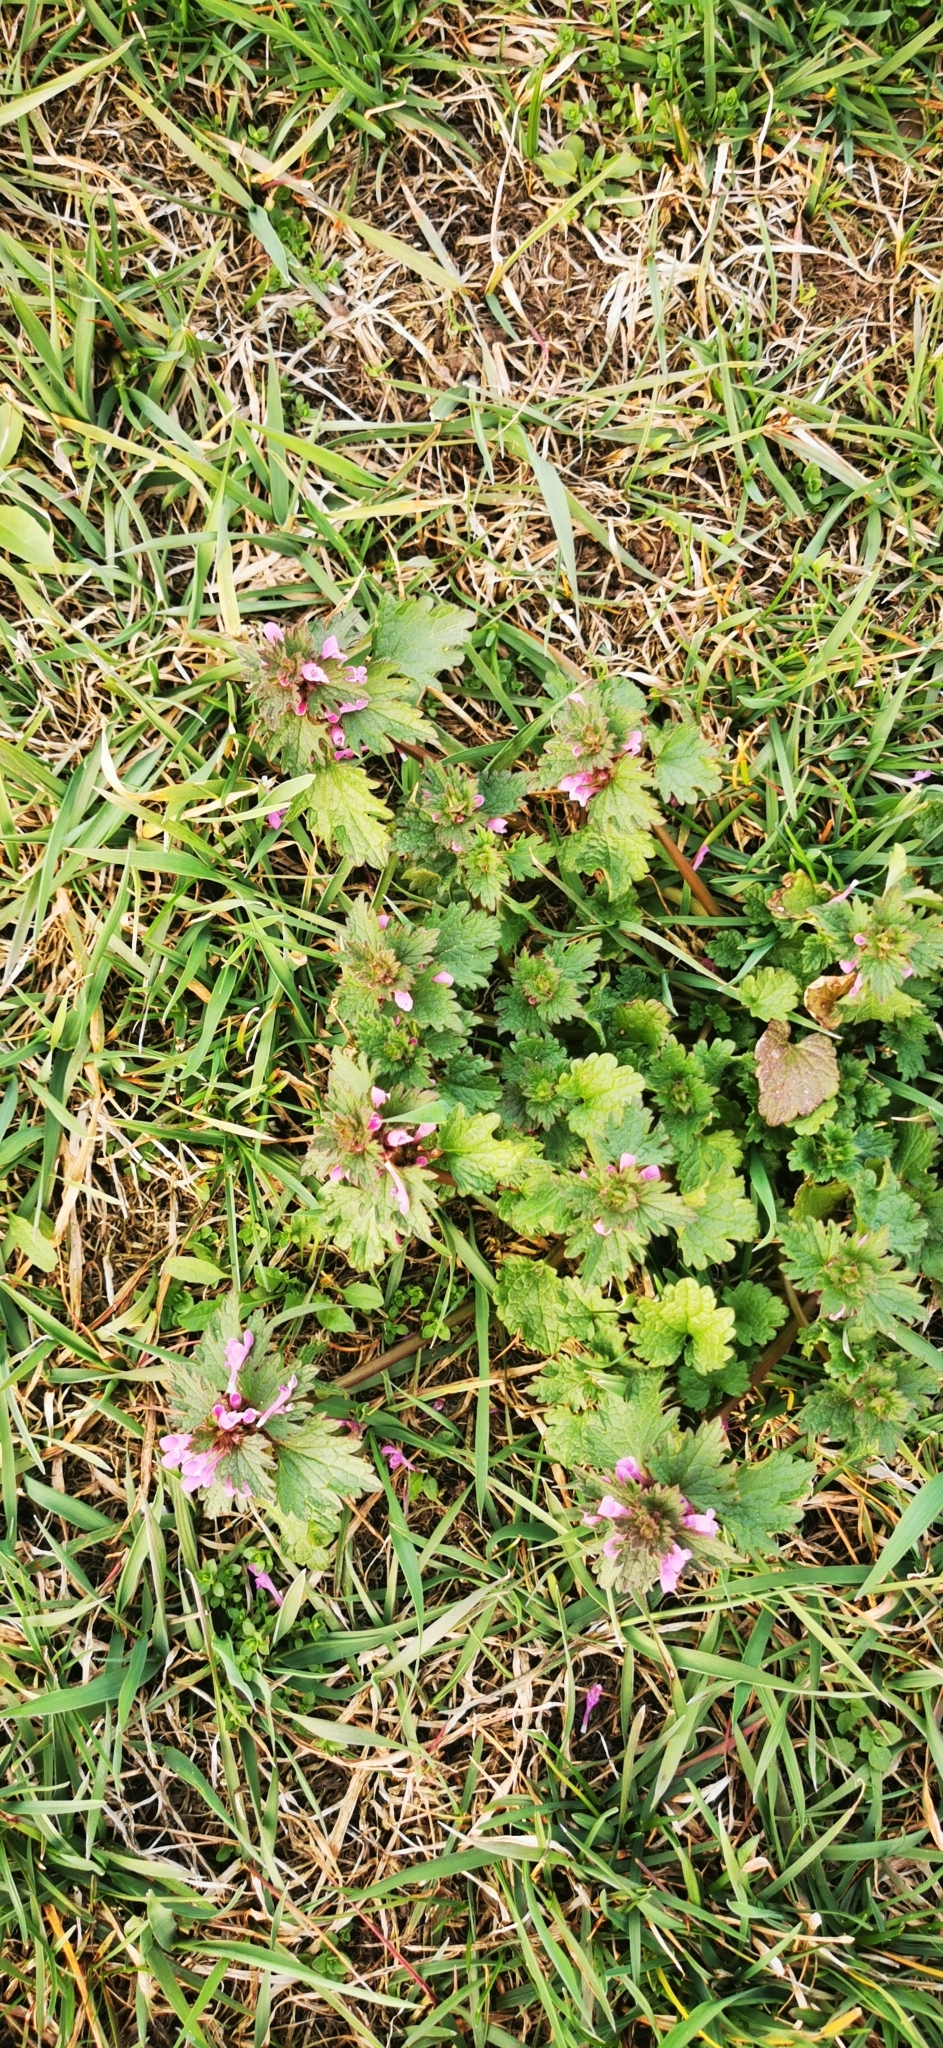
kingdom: Plantae
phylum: Tracheophyta
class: Magnoliopsida
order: Lamiales
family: Lamiaceae
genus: Lamium
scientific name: Lamium hybridum
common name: Cut-leaved dead-nettle
